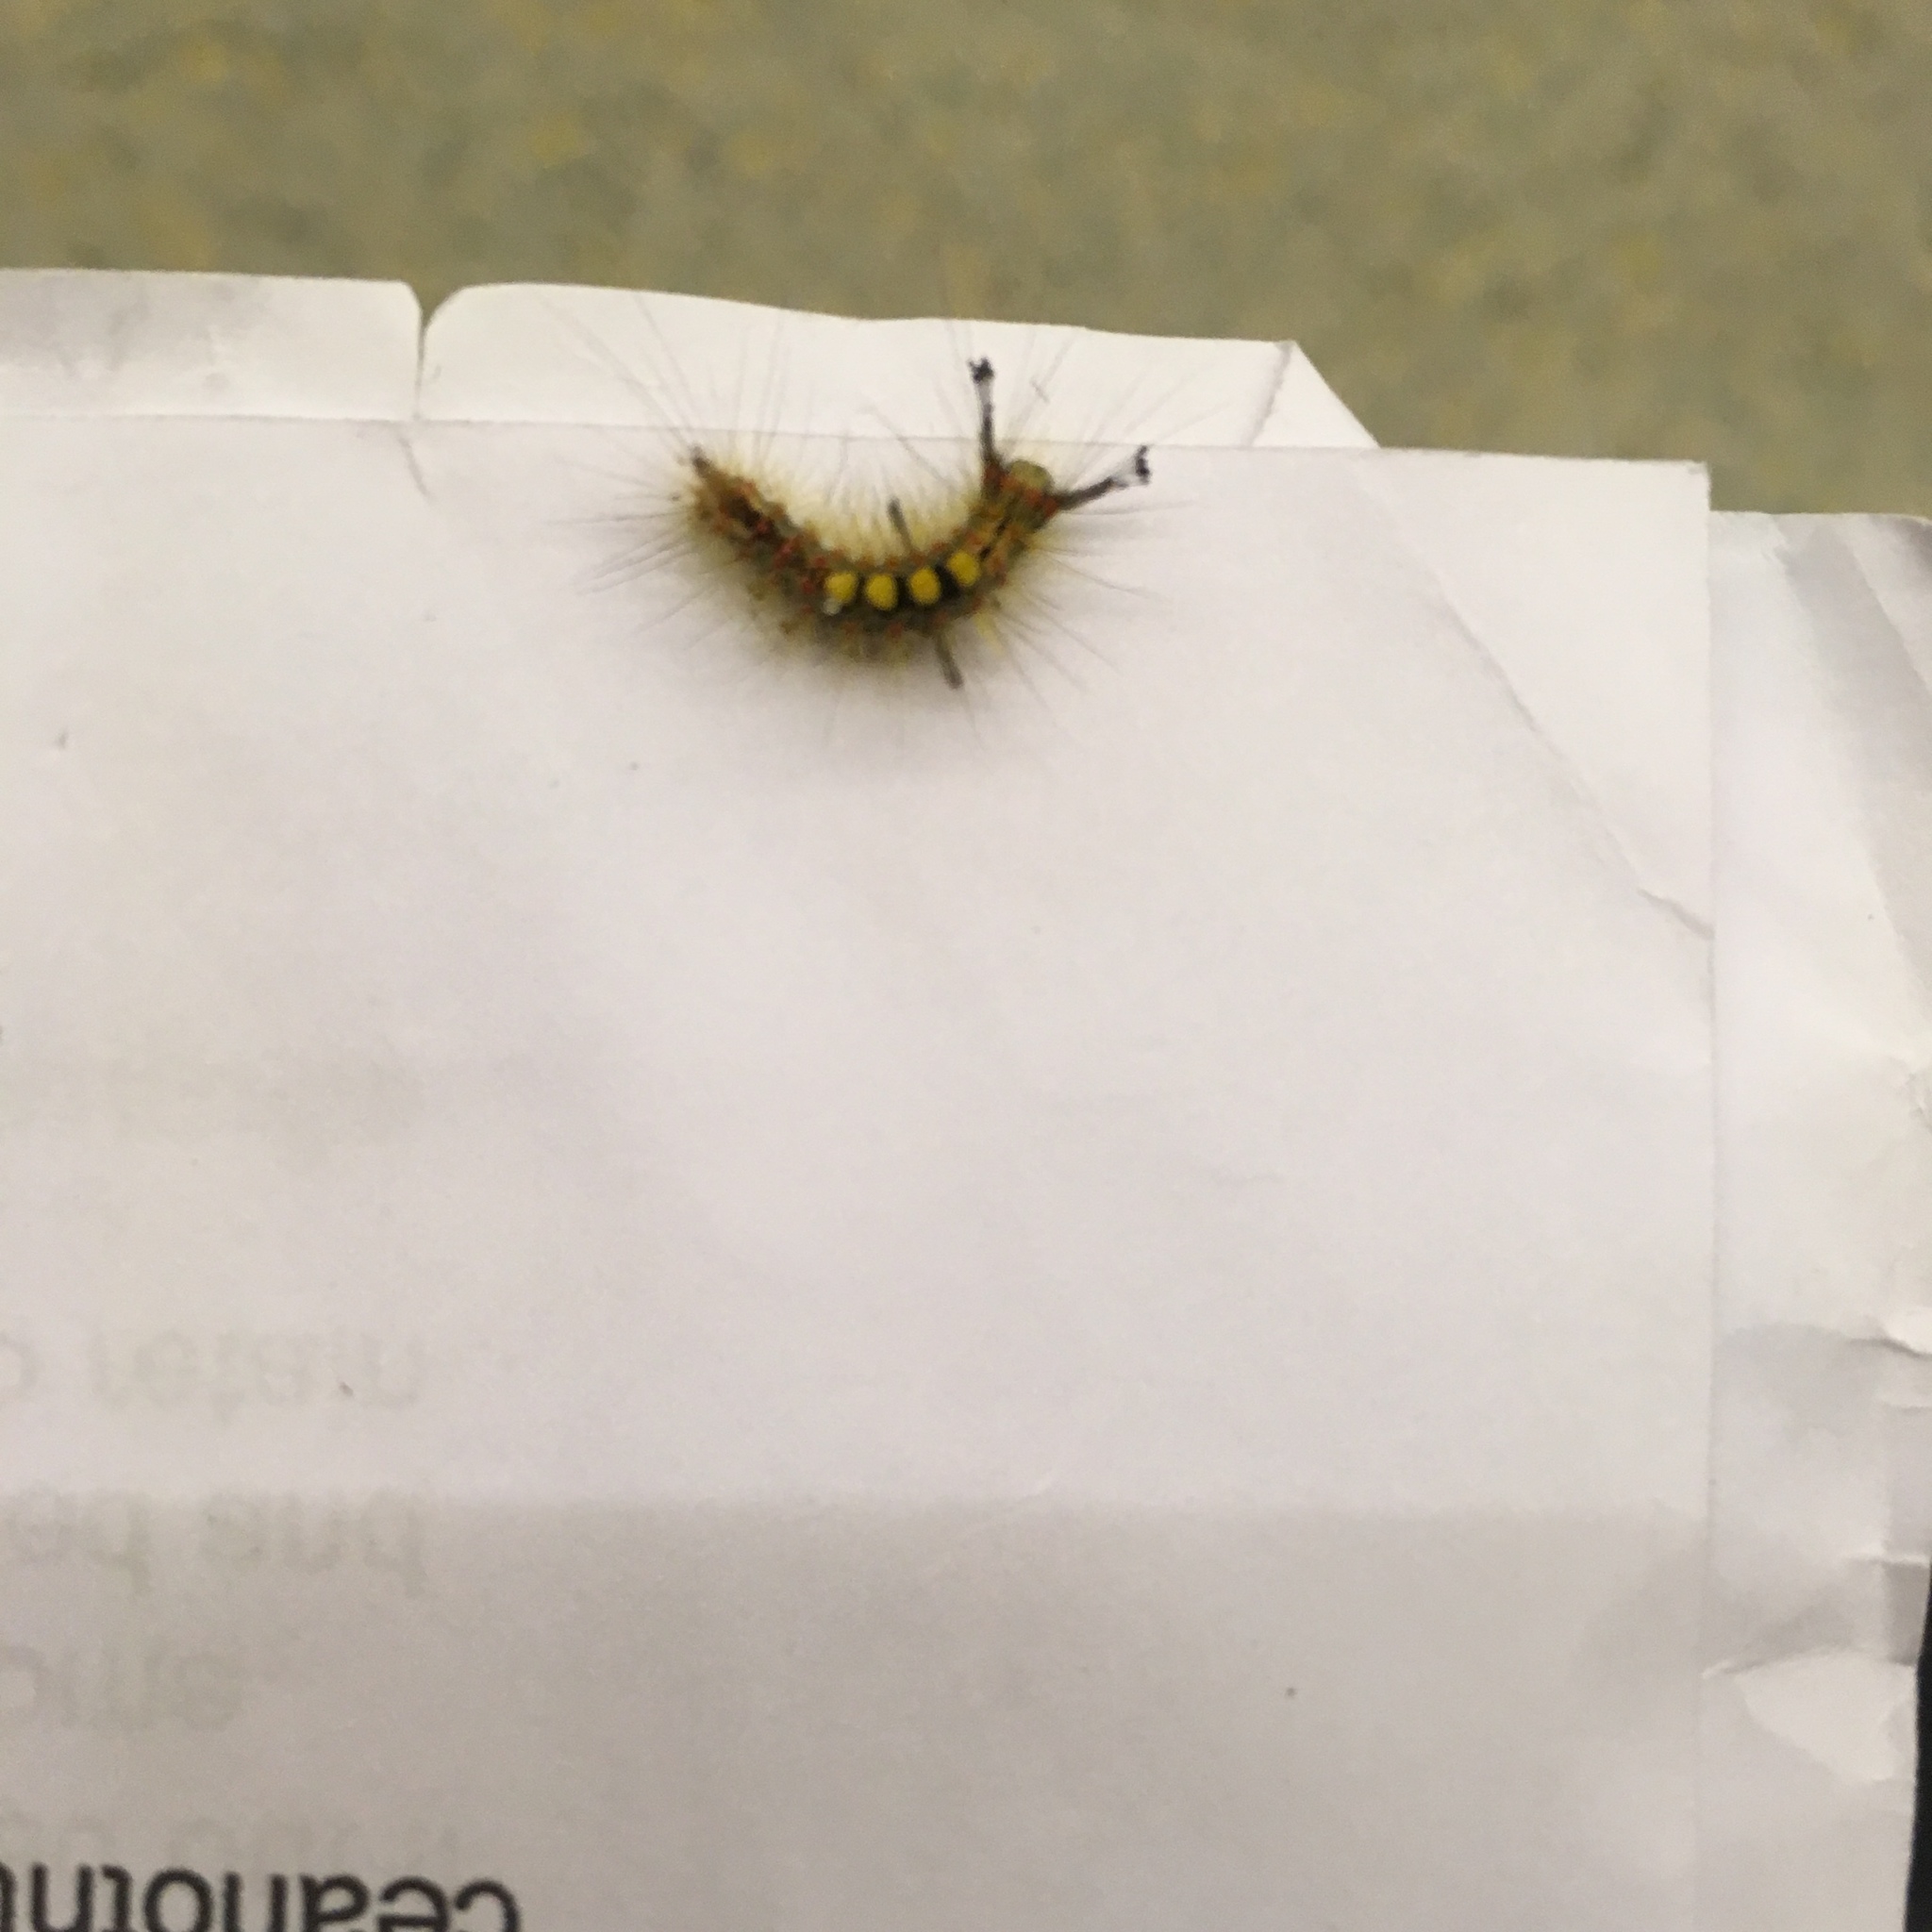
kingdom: Animalia
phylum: Arthropoda
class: Insecta
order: Lepidoptera
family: Erebidae
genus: Orgyia
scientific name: Orgyia antiqua
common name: Vapourer
